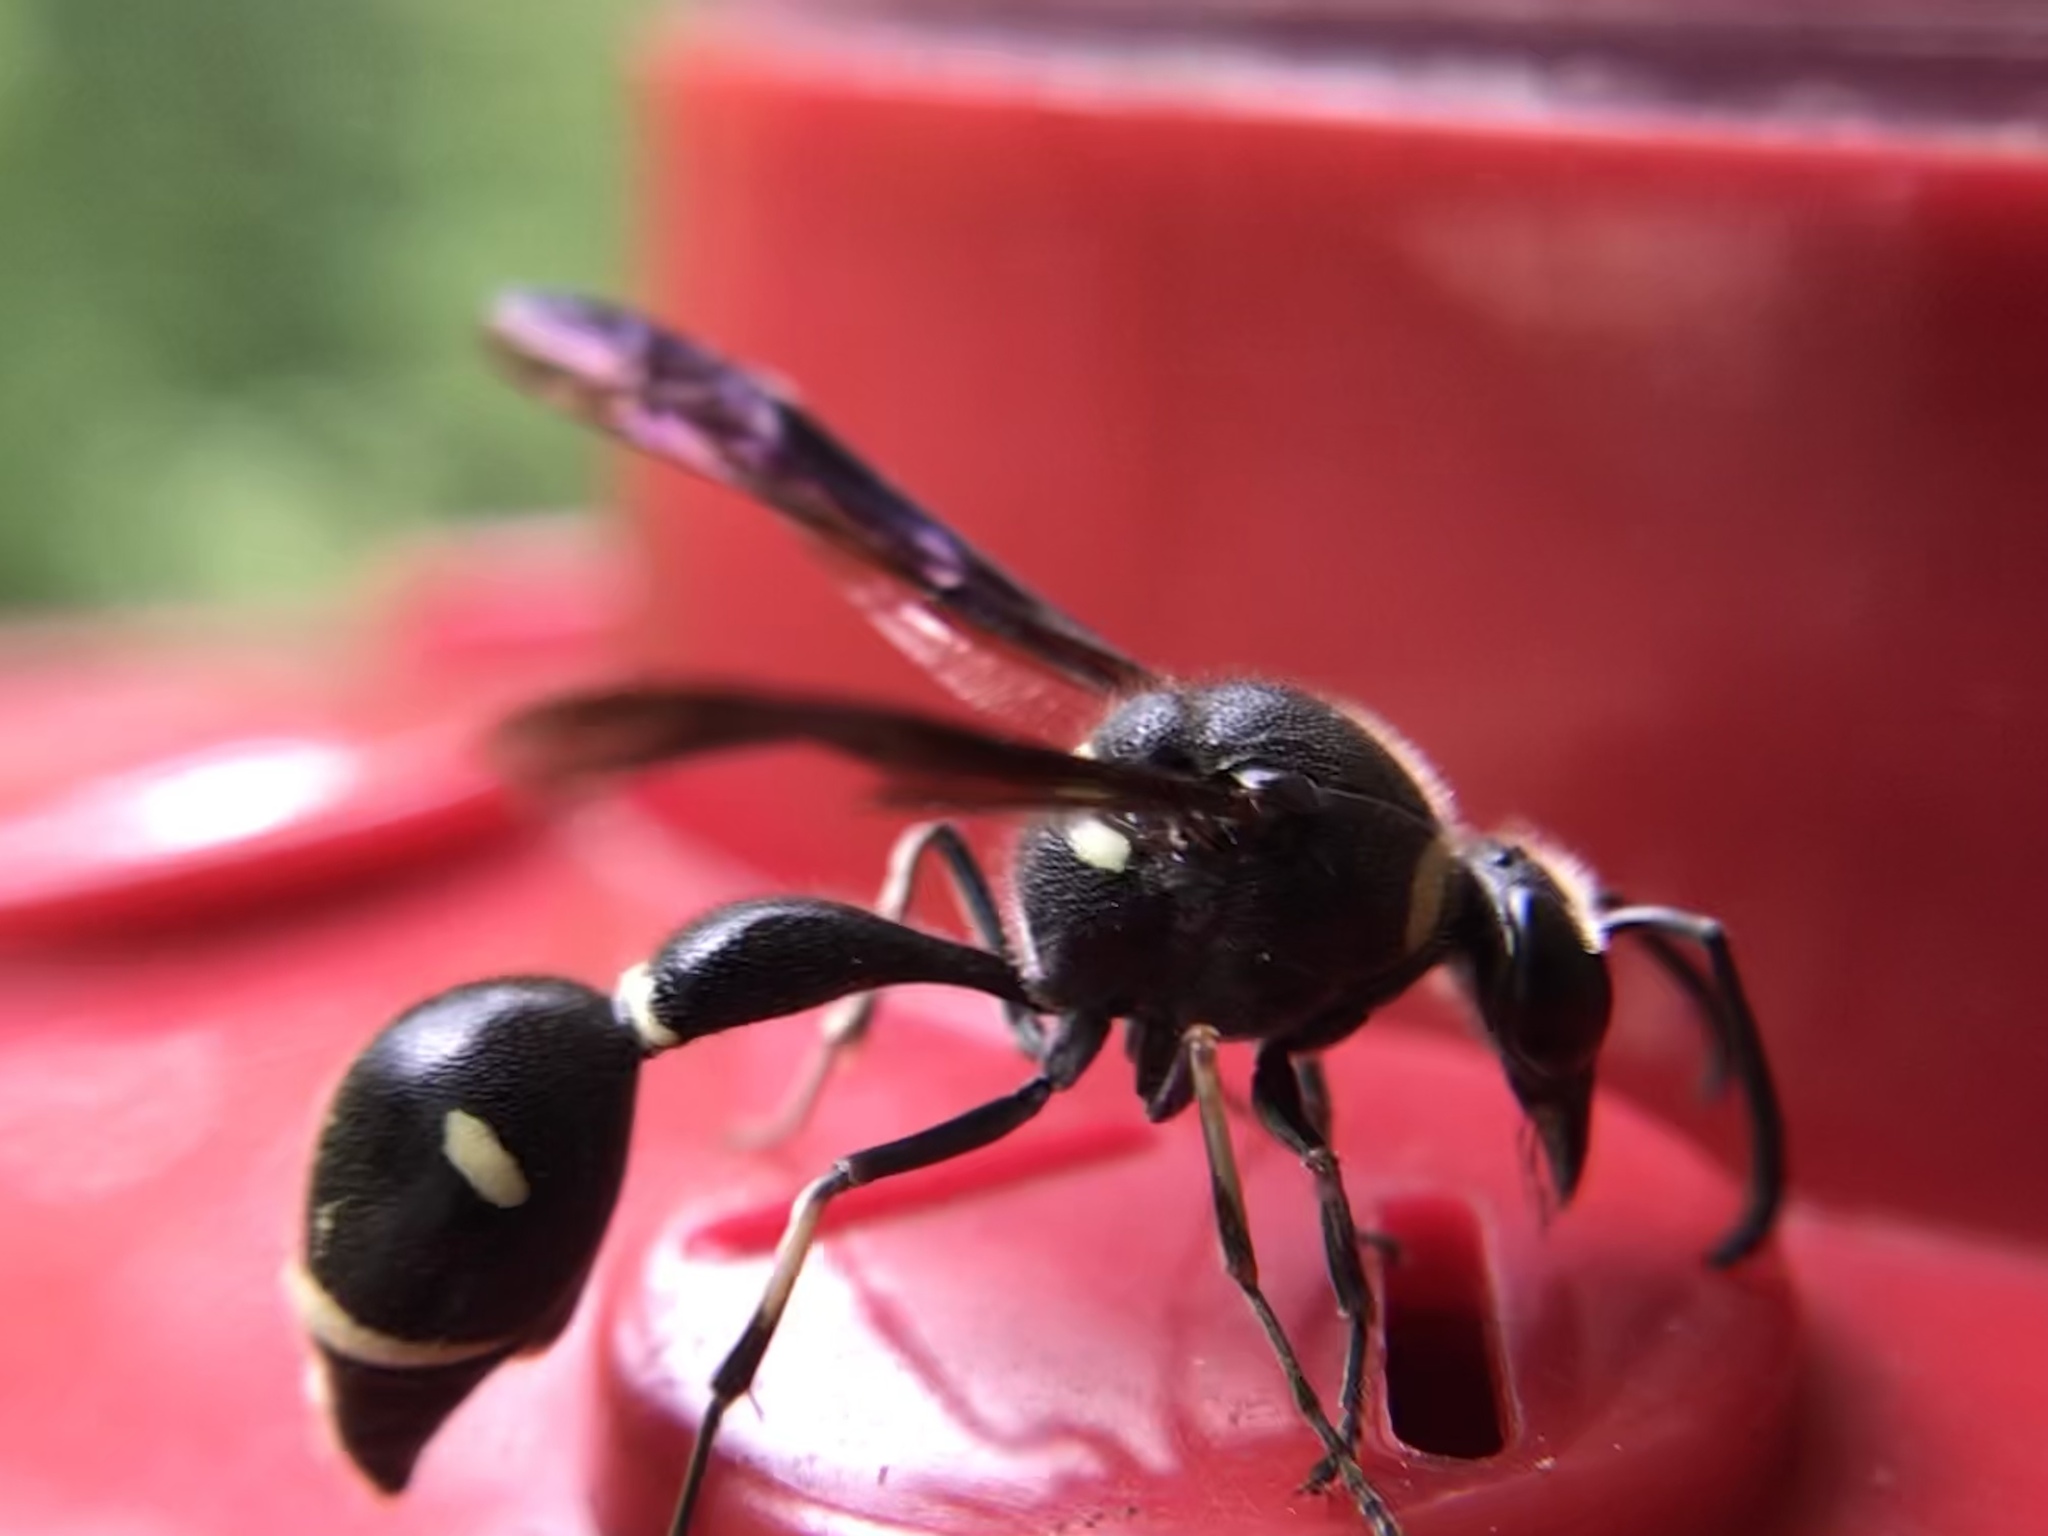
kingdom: Animalia
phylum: Arthropoda
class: Insecta
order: Hymenoptera
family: Vespidae
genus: Eumenes
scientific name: Eumenes fraternus
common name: Fraternal potter wasp
